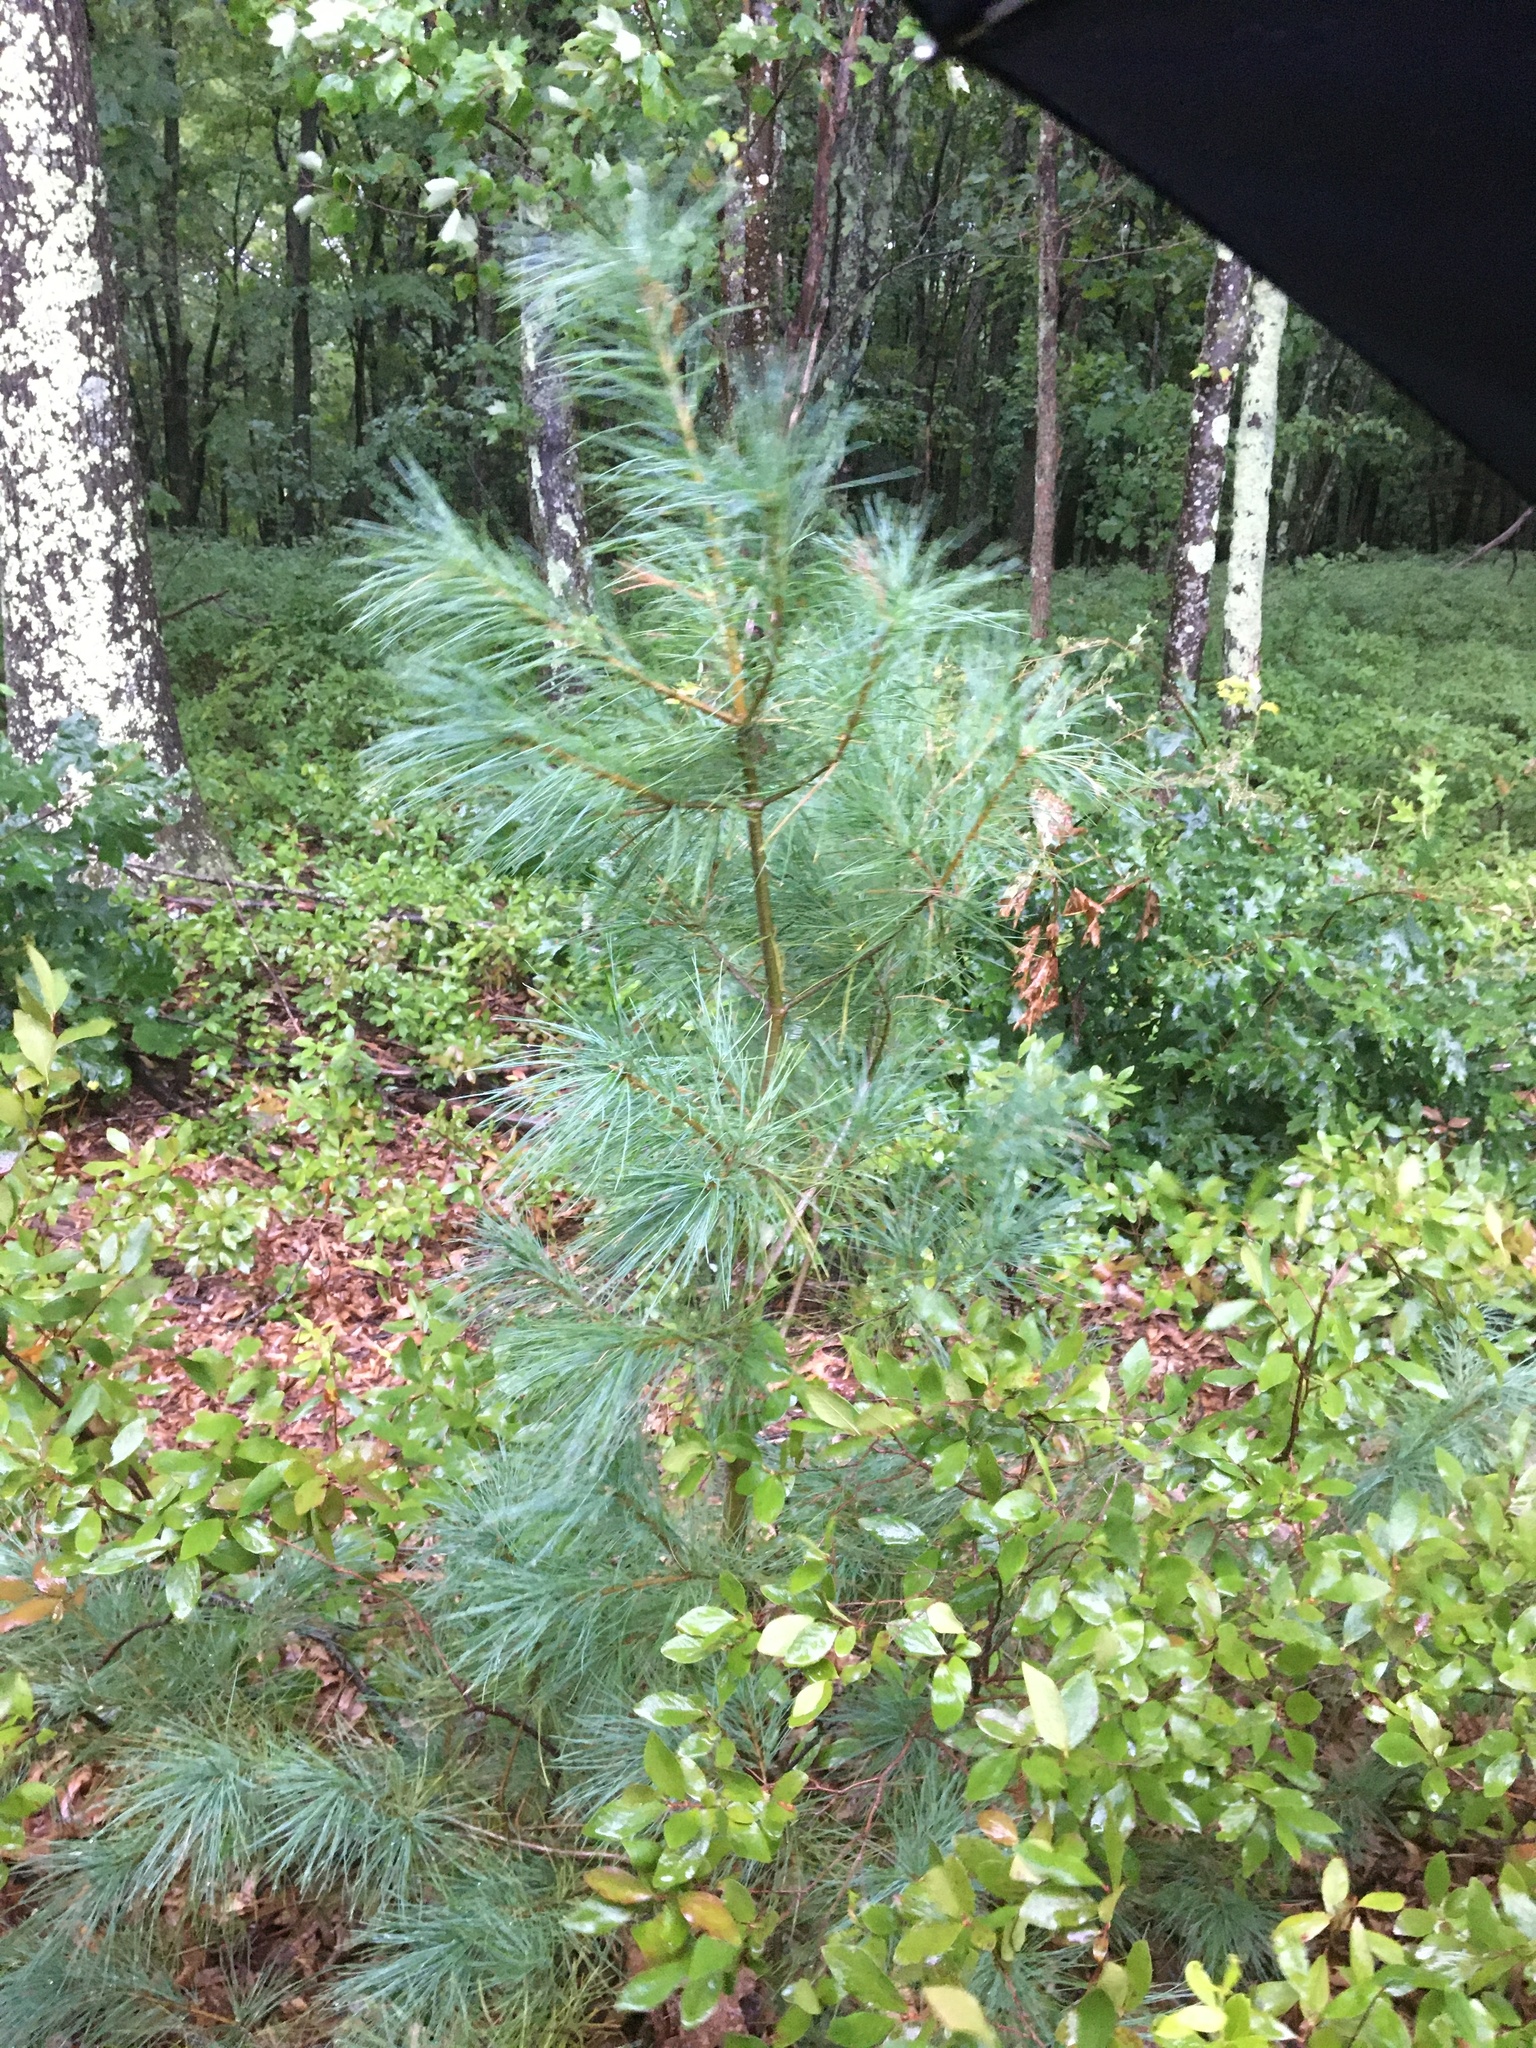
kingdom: Plantae
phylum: Tracheophyta
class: Pinopsida
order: Pinales
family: Pinaceae
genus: Pinus
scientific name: Pinus strobus
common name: Weymouth pine
